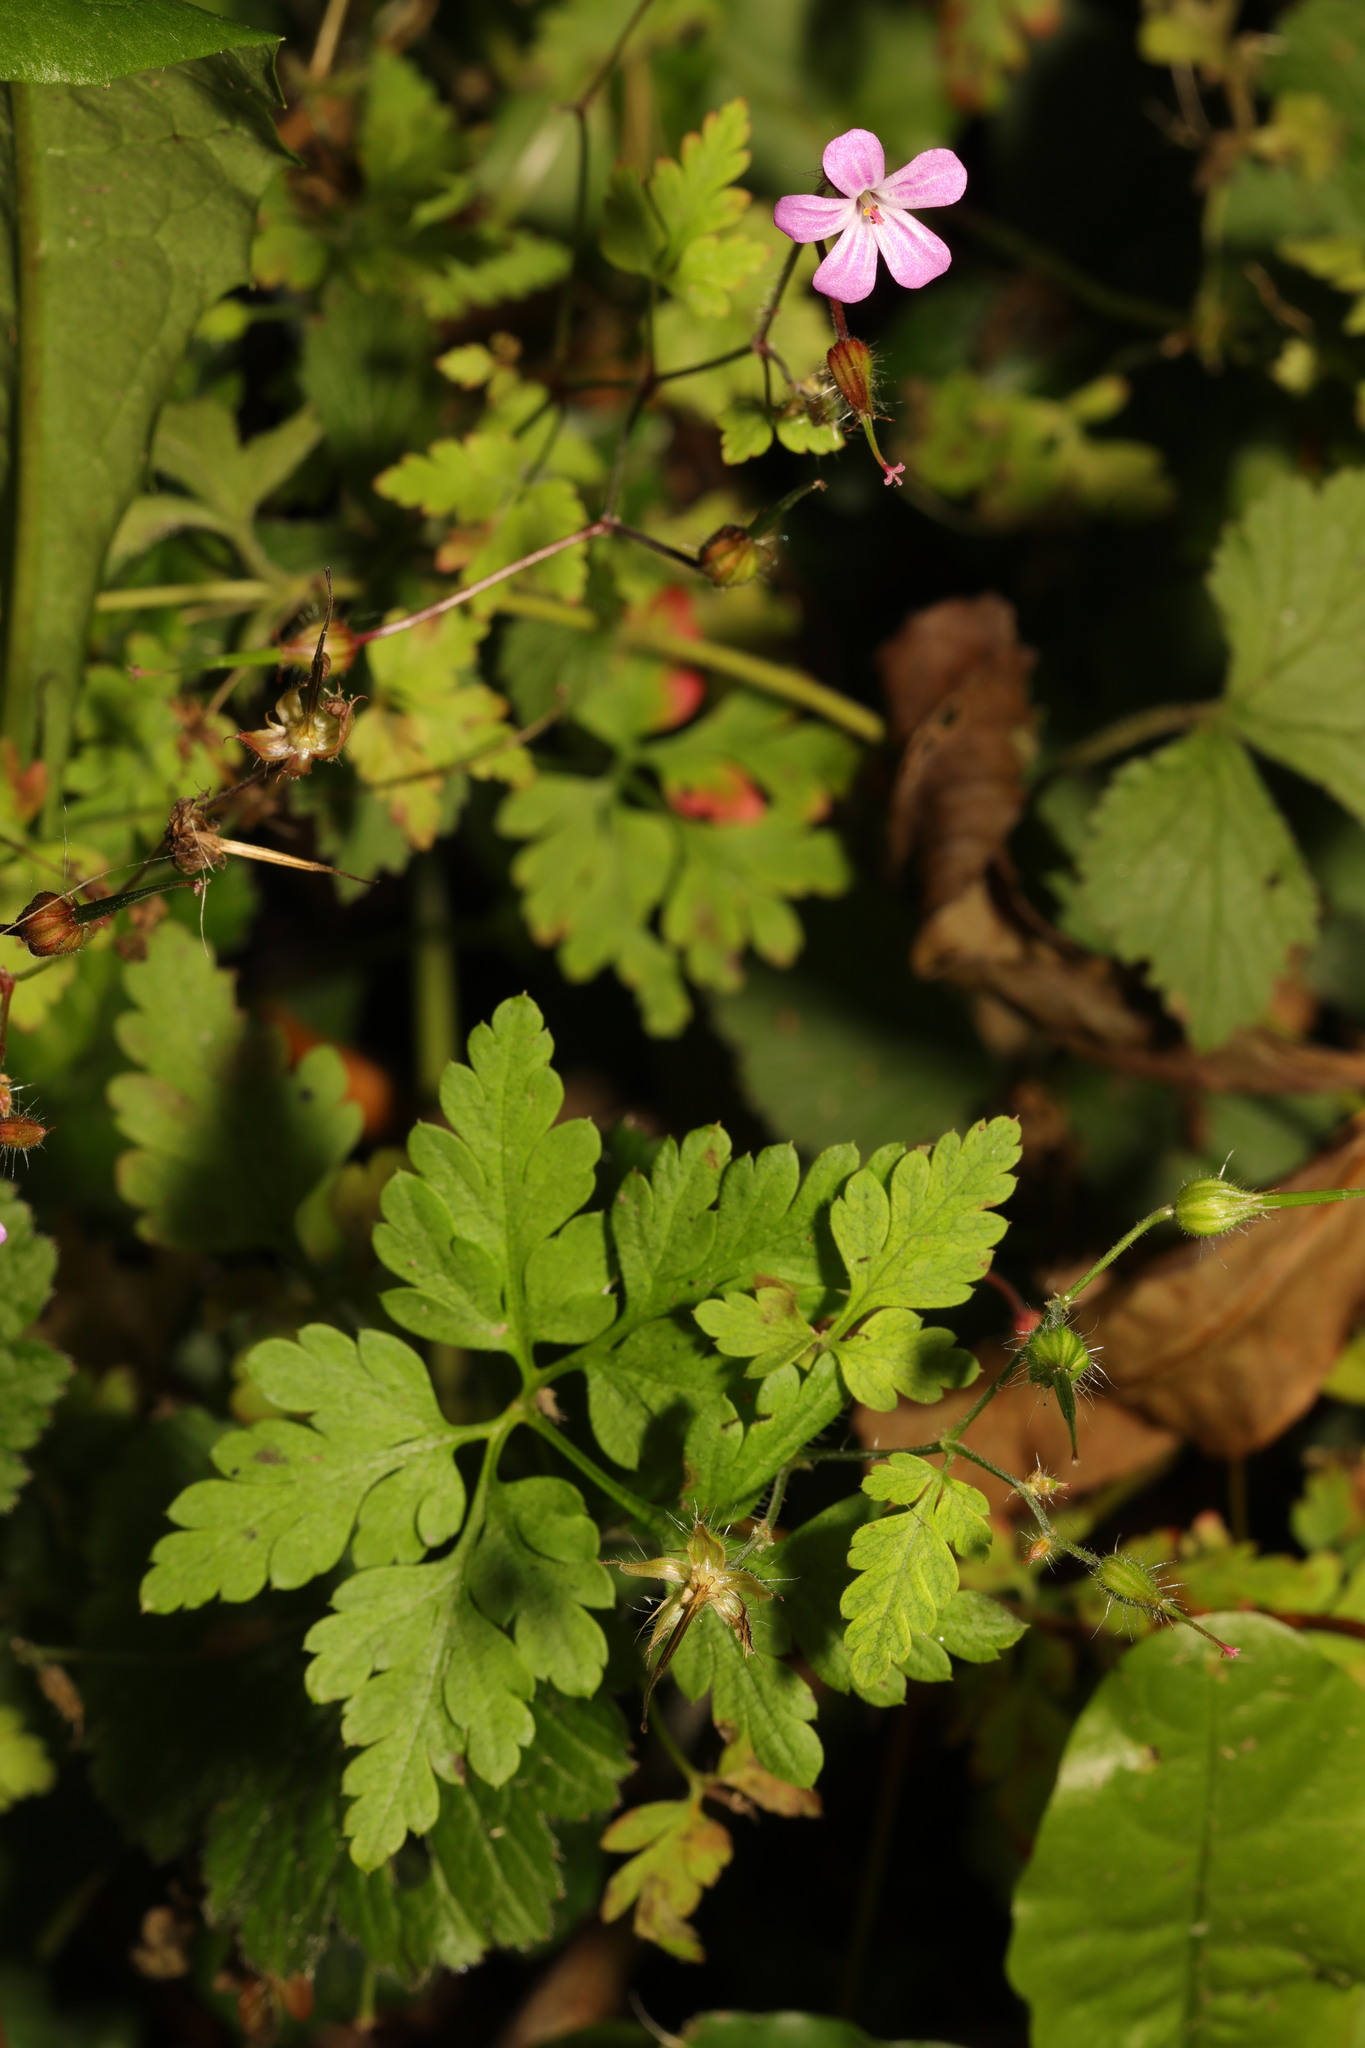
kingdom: Plantae
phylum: Tracheophyta
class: Magnoliopsida
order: Geraniales
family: Geraniaceae
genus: Geranium
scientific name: Geranium robertianum
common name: Herb-robert
